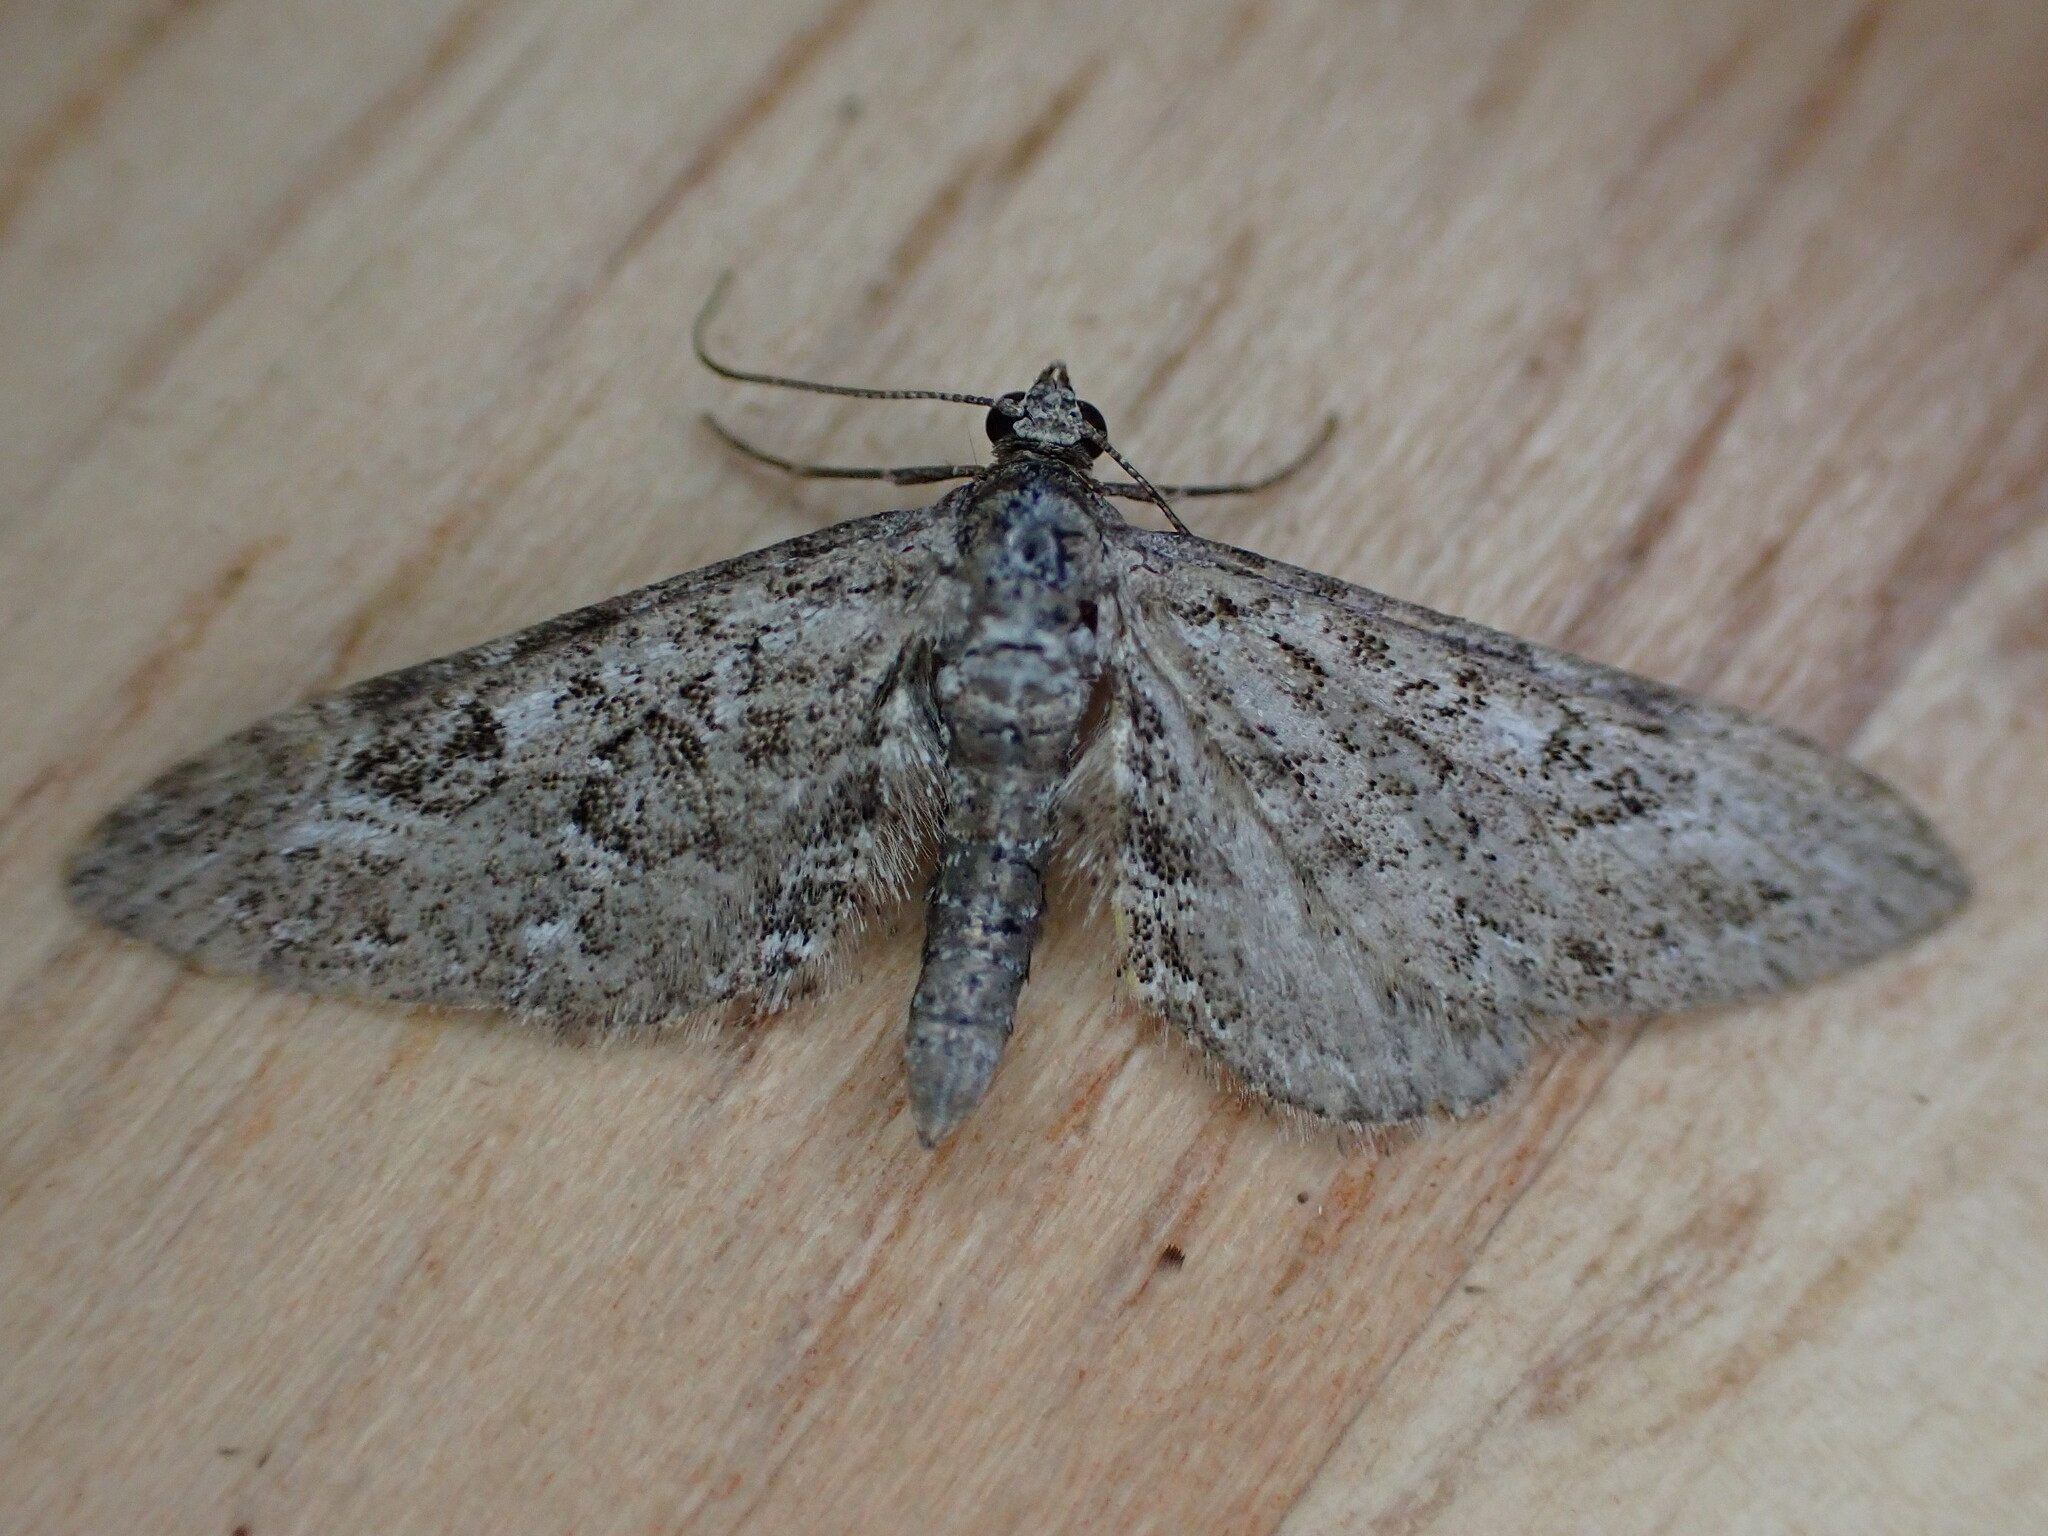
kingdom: Animalia
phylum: Arthropoda
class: Insecta
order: Lepidoptera
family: Geometridae
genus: Eupithecia
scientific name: Eupithecia nanata
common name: Narrow-winged pug
